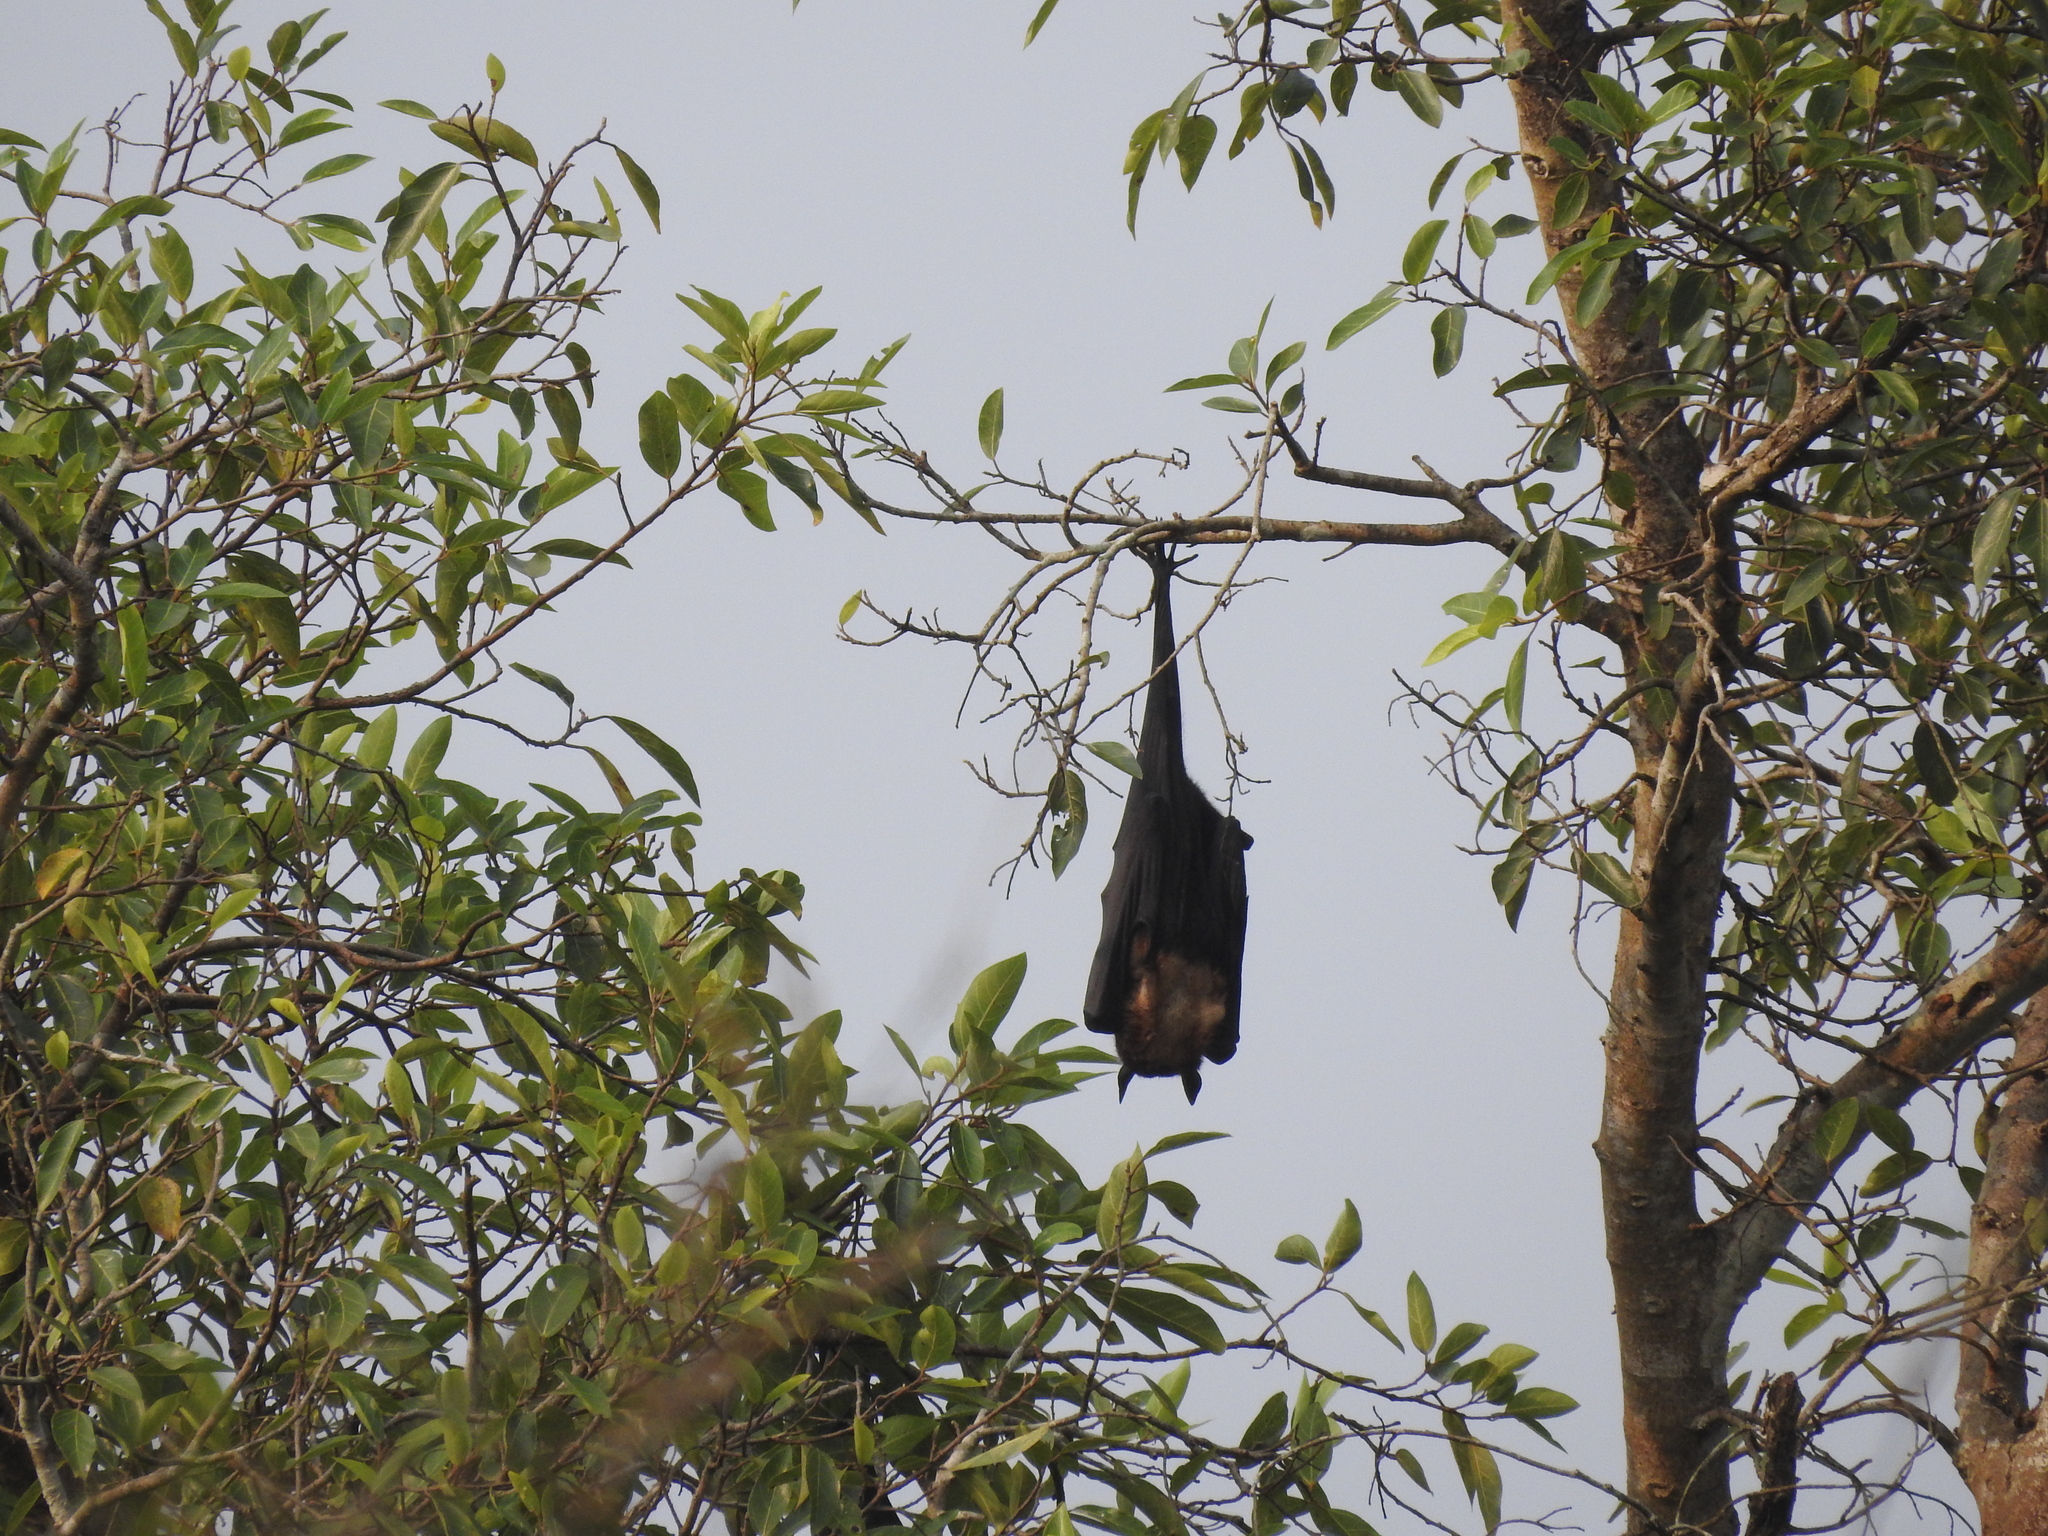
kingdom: Animalia
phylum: Chordata
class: Mammalia
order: Chiroptera
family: Pteropodidae
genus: Pteropus
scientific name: Pteropus vampyrus
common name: Large flying fox
